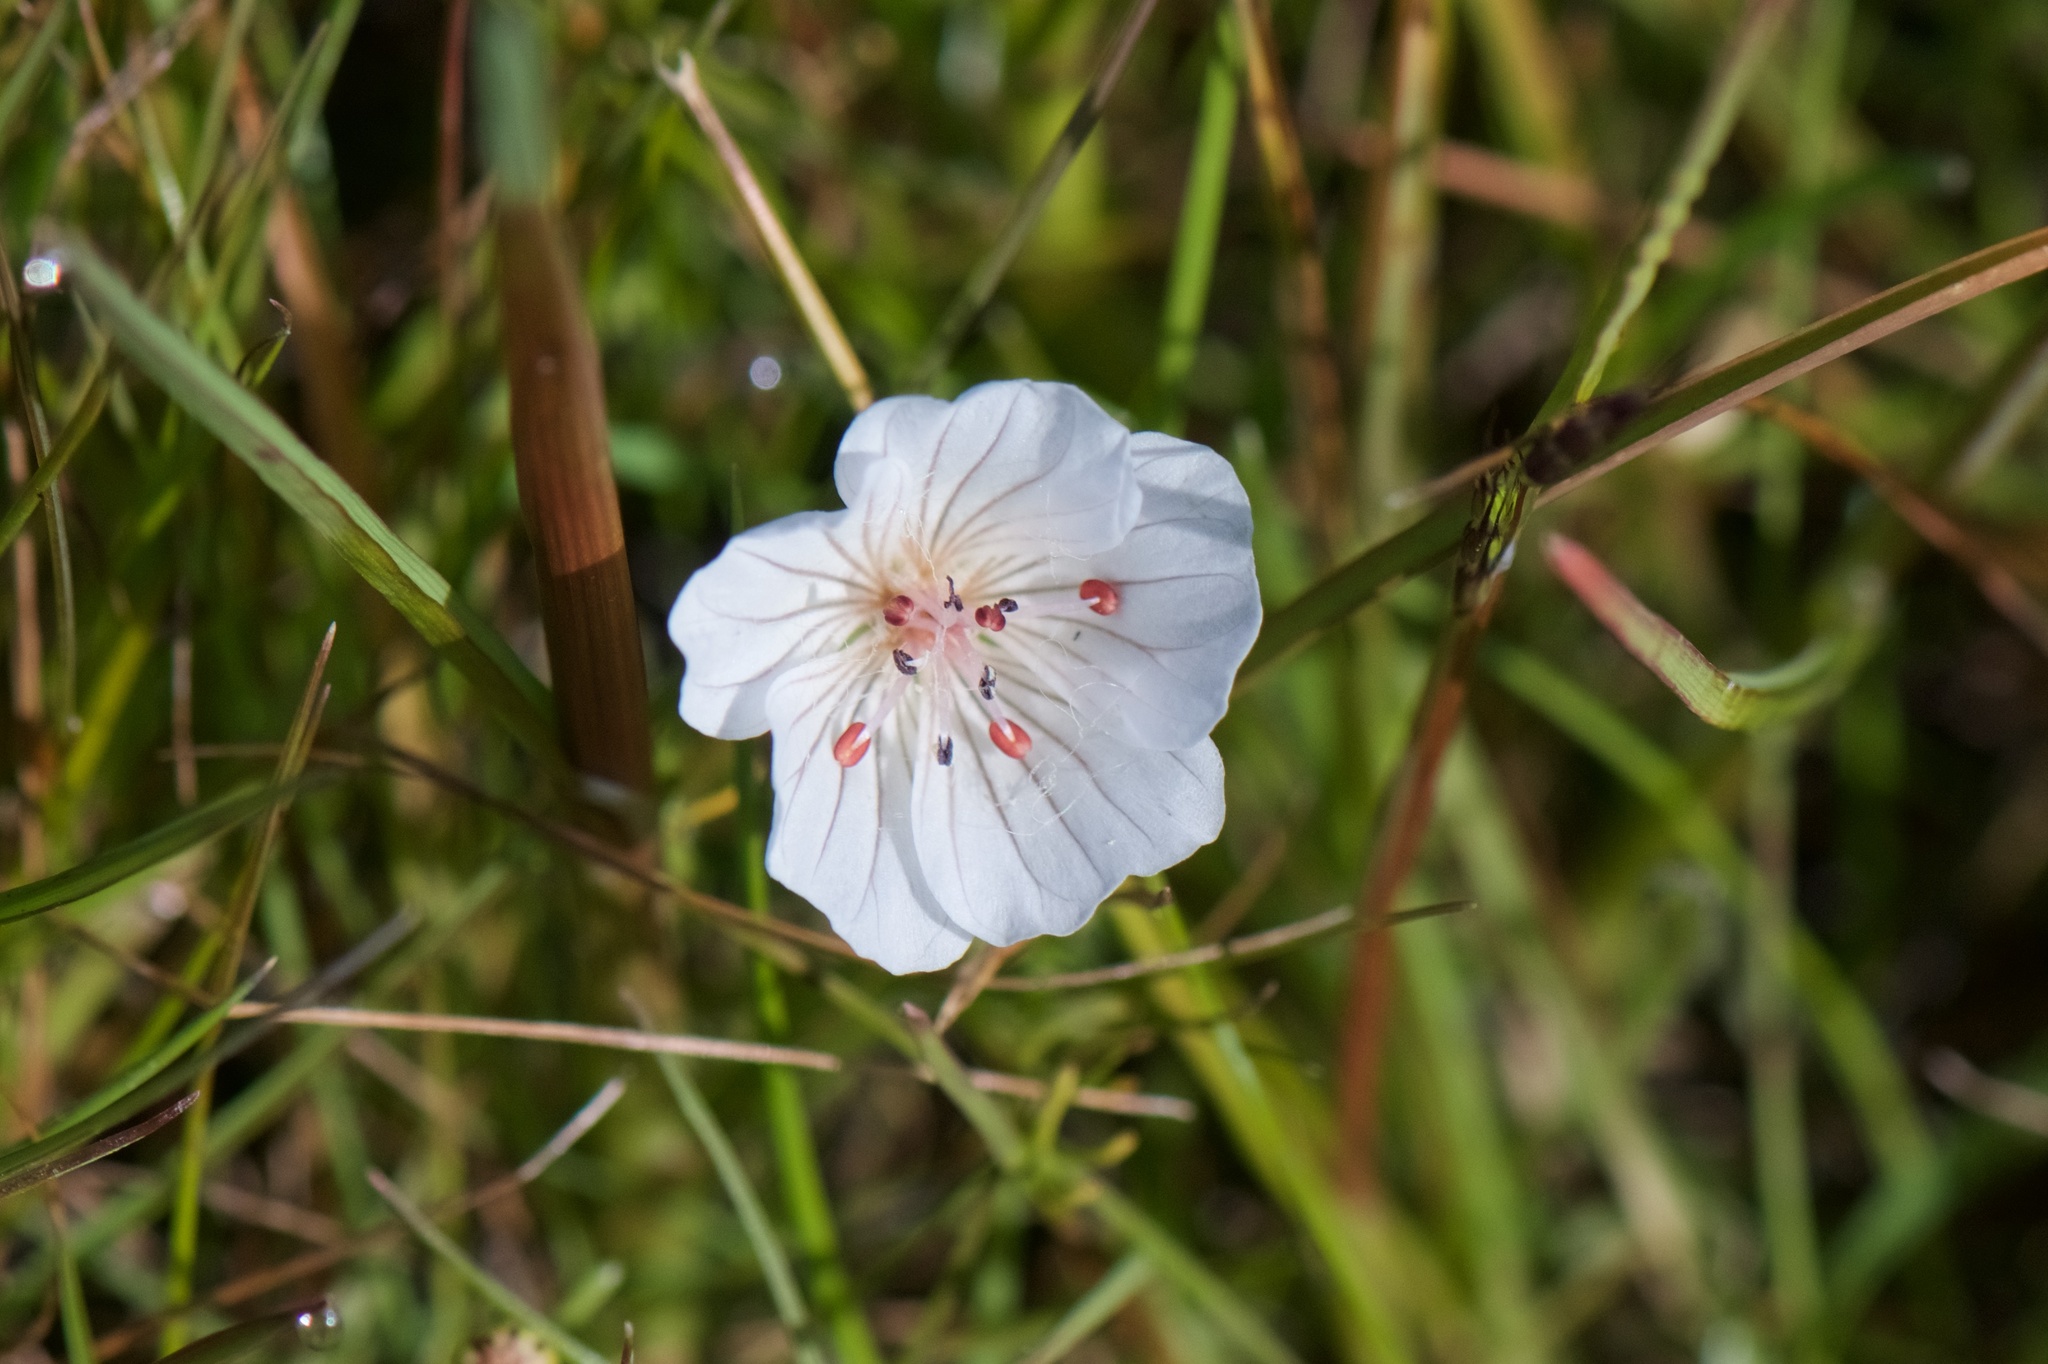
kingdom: Plantae
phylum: Tracheophyta
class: Magnoliopsida
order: Brassicales
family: Limnanthaceae
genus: Limnanthes
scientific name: Limnanthes douglasii
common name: Meadow-foam
